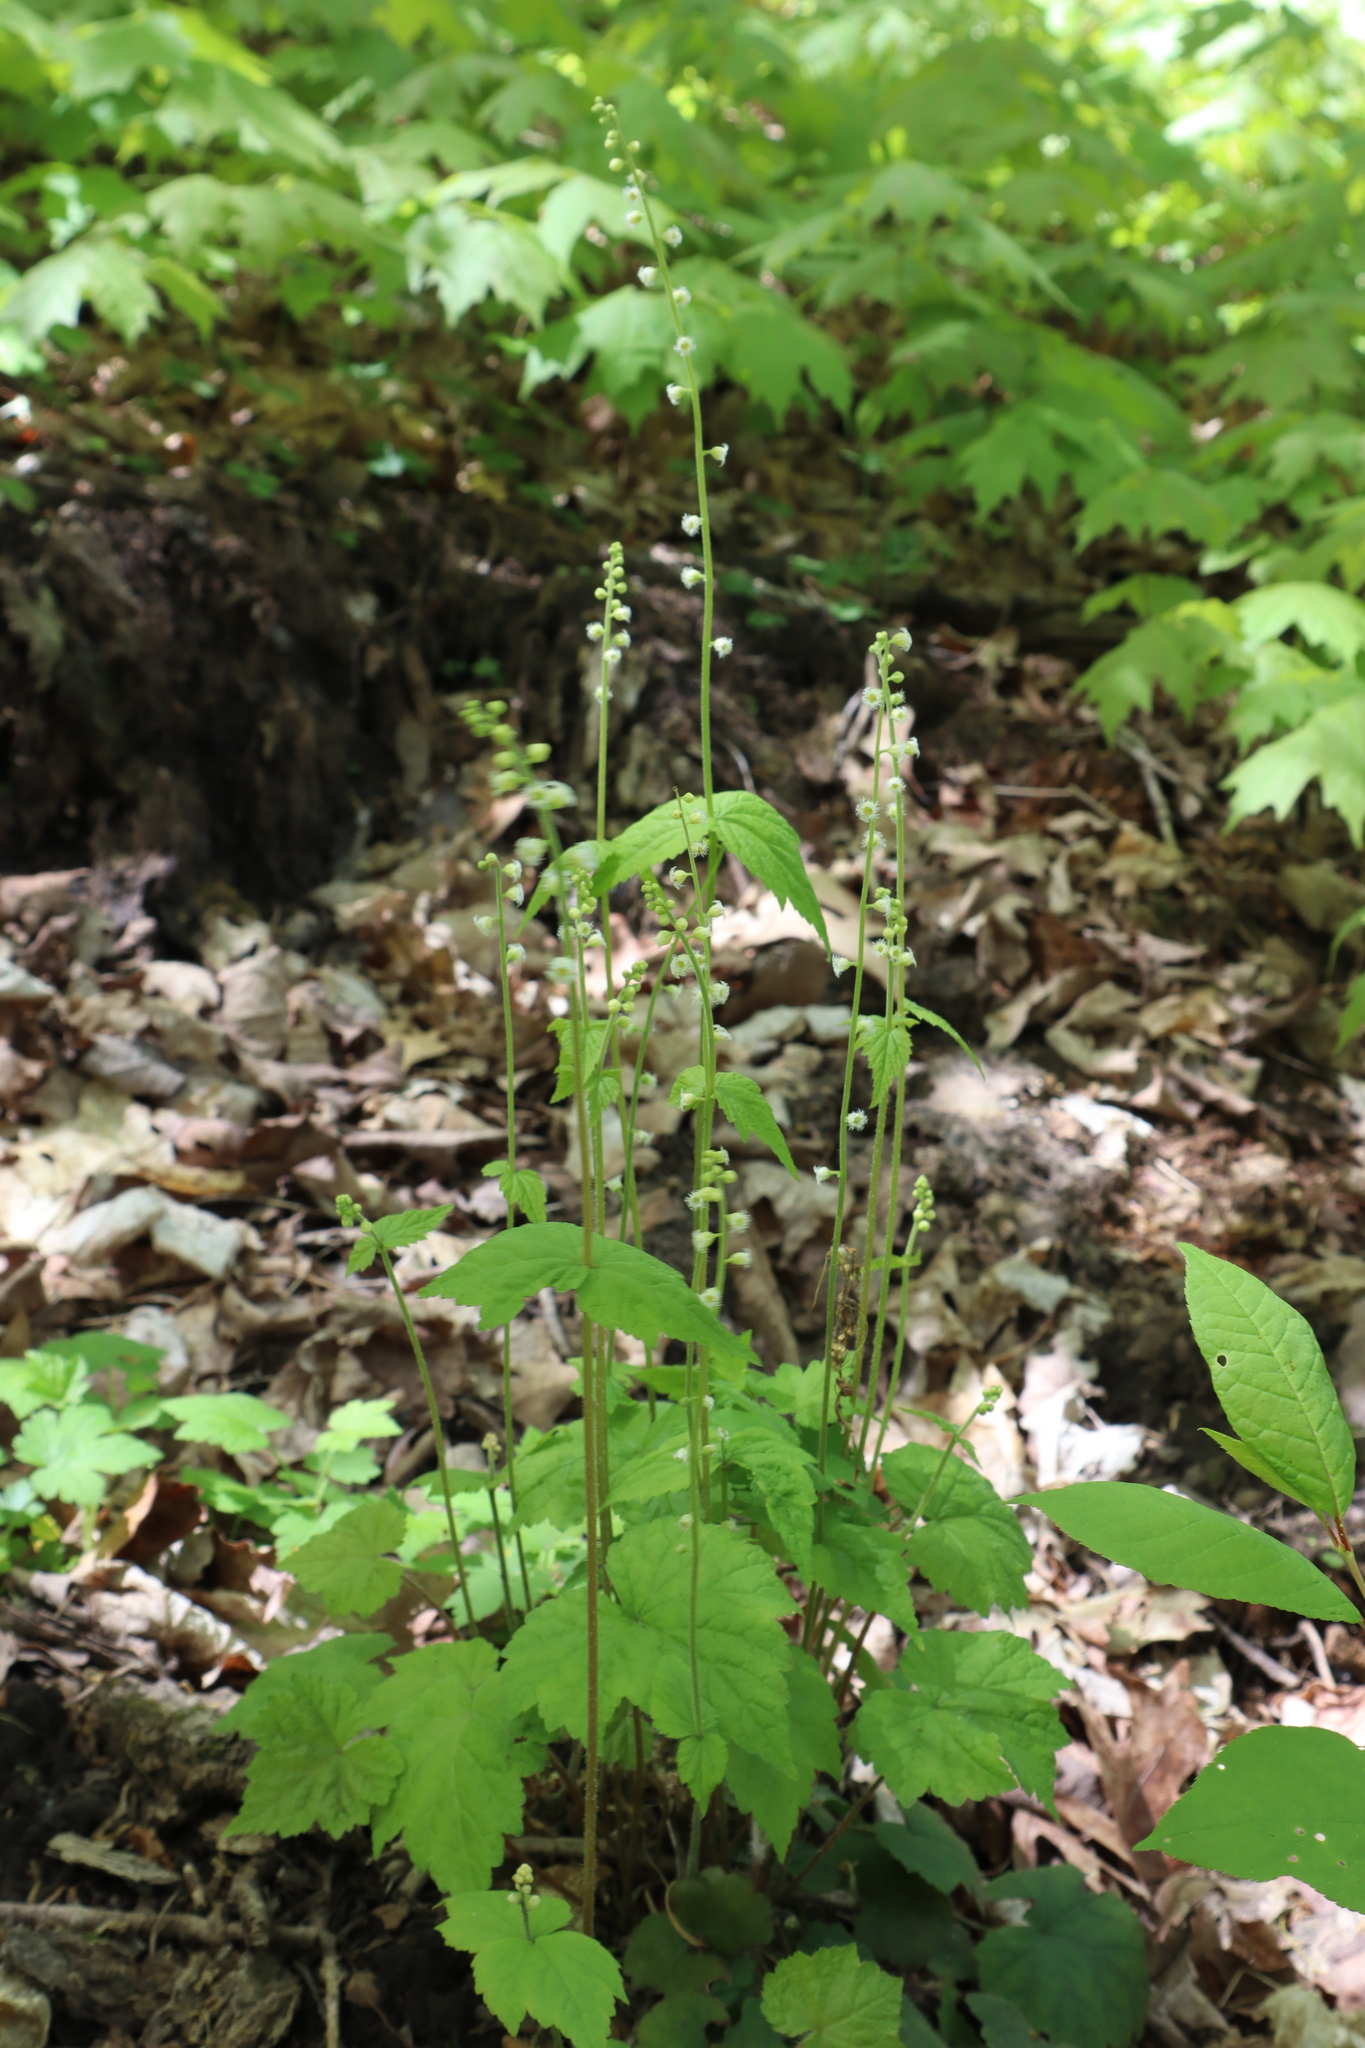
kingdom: Plantae
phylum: Tracheophyta
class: Magnoliopsida
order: Saxifragales
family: Saxifragaceae
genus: Mitella
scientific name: Mitella diphylla
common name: Coolwort
